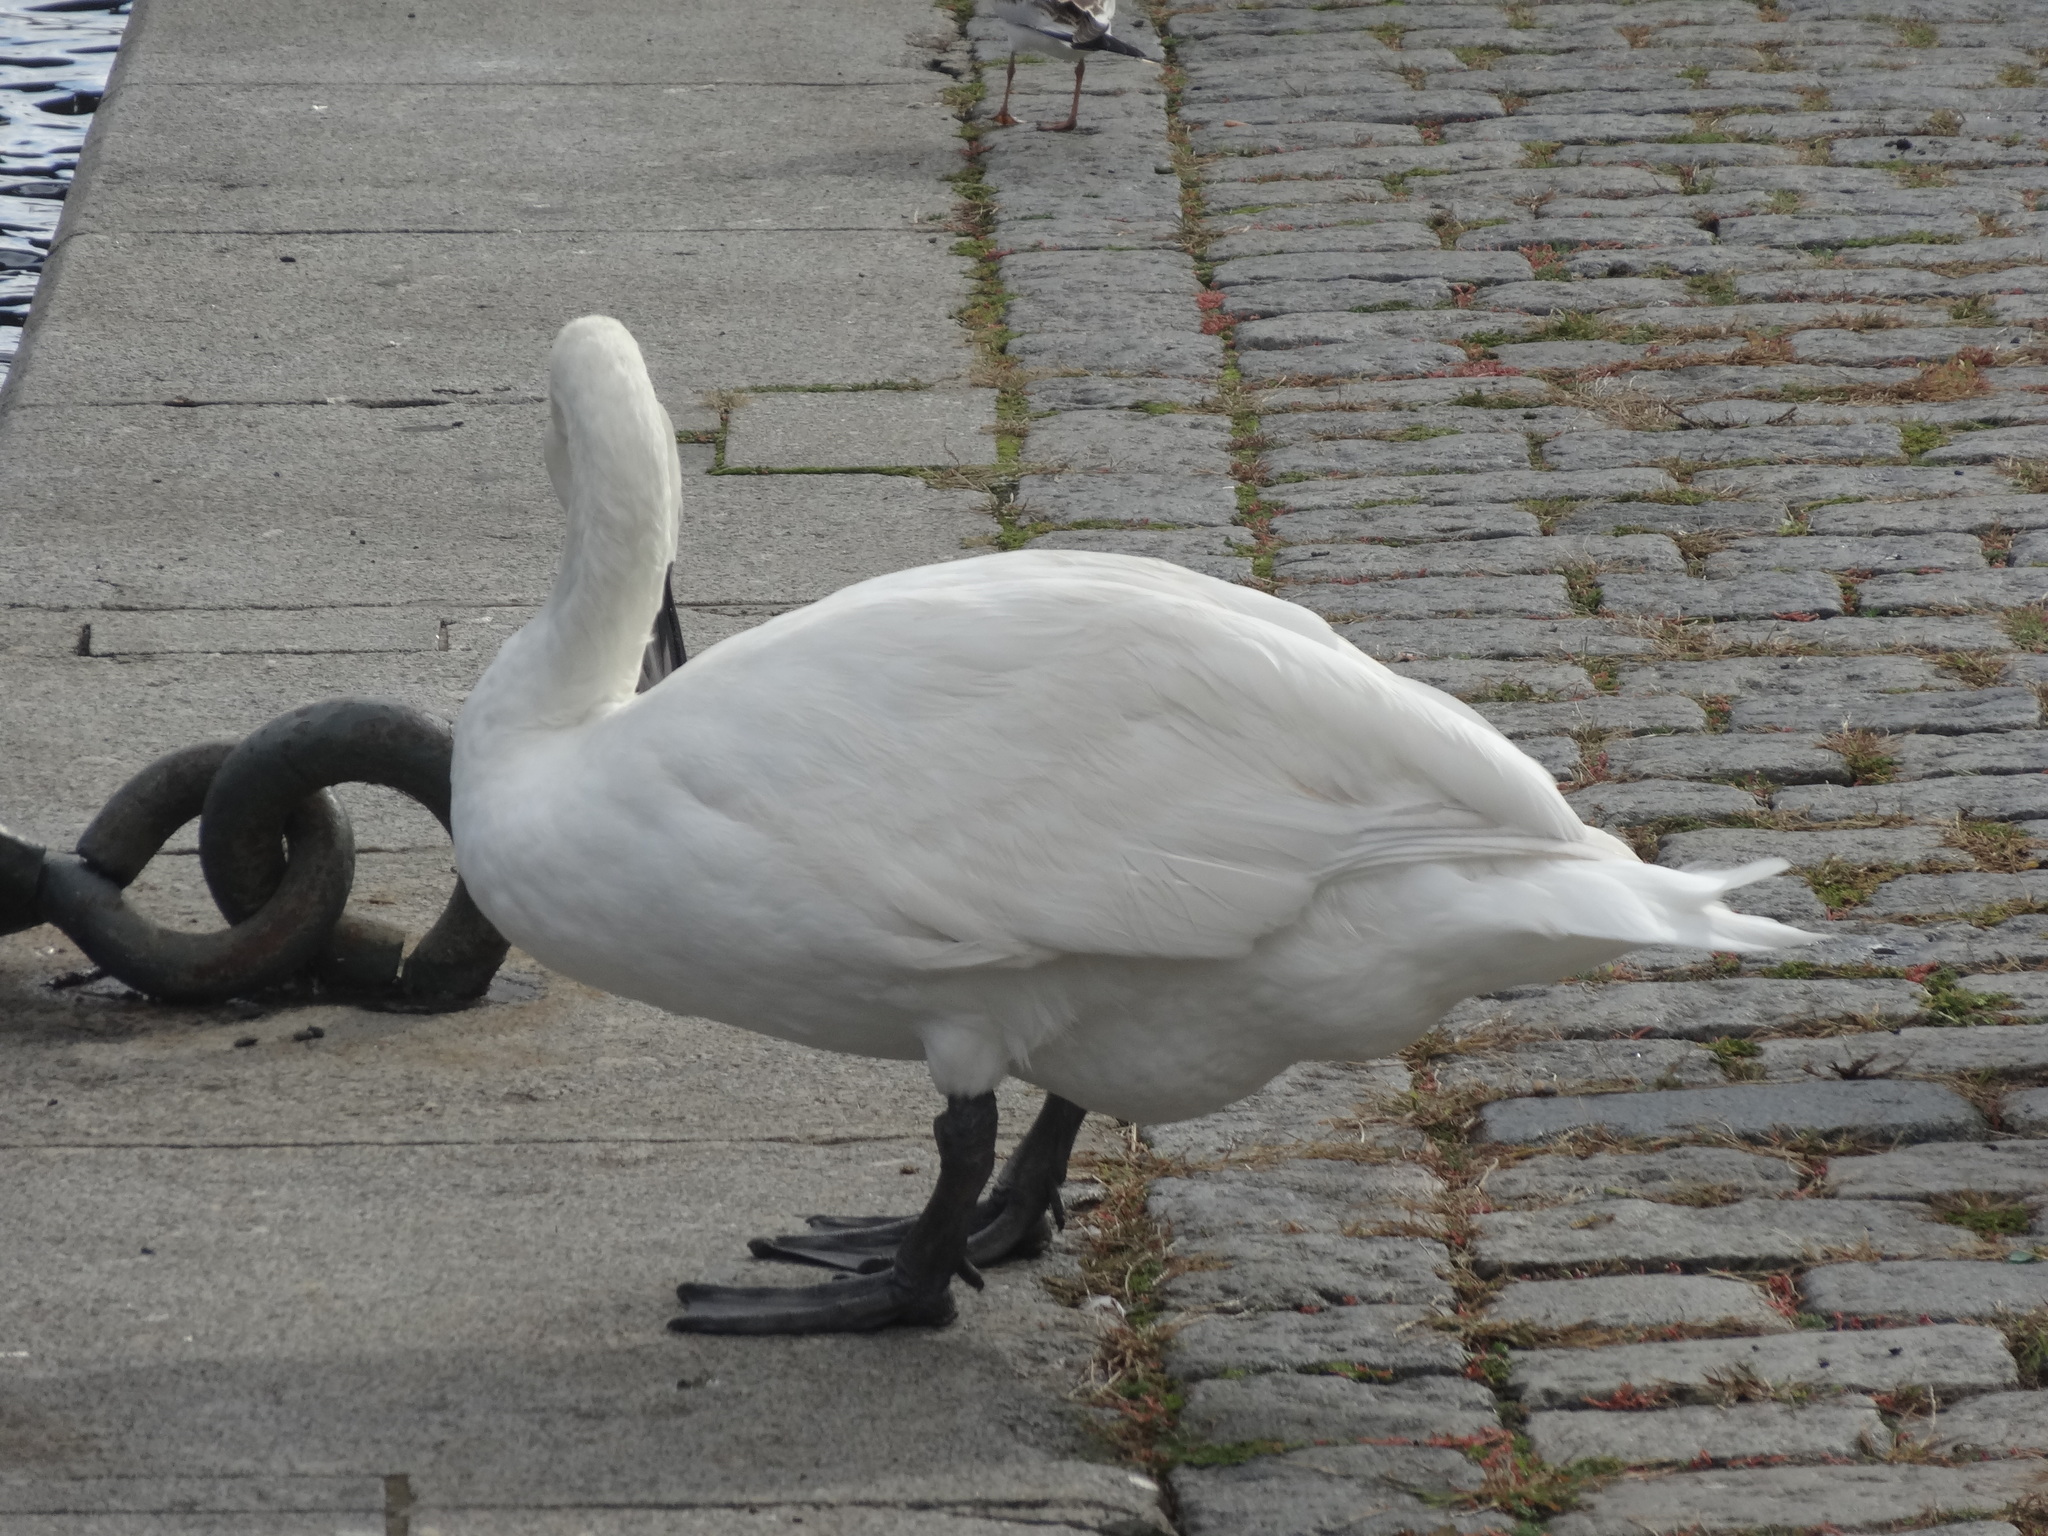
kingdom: Animalia
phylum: Chordata
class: Aves
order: Anseriformes
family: Anatidae
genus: Cygnus
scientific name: Cygnus olor
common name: Mute swan
